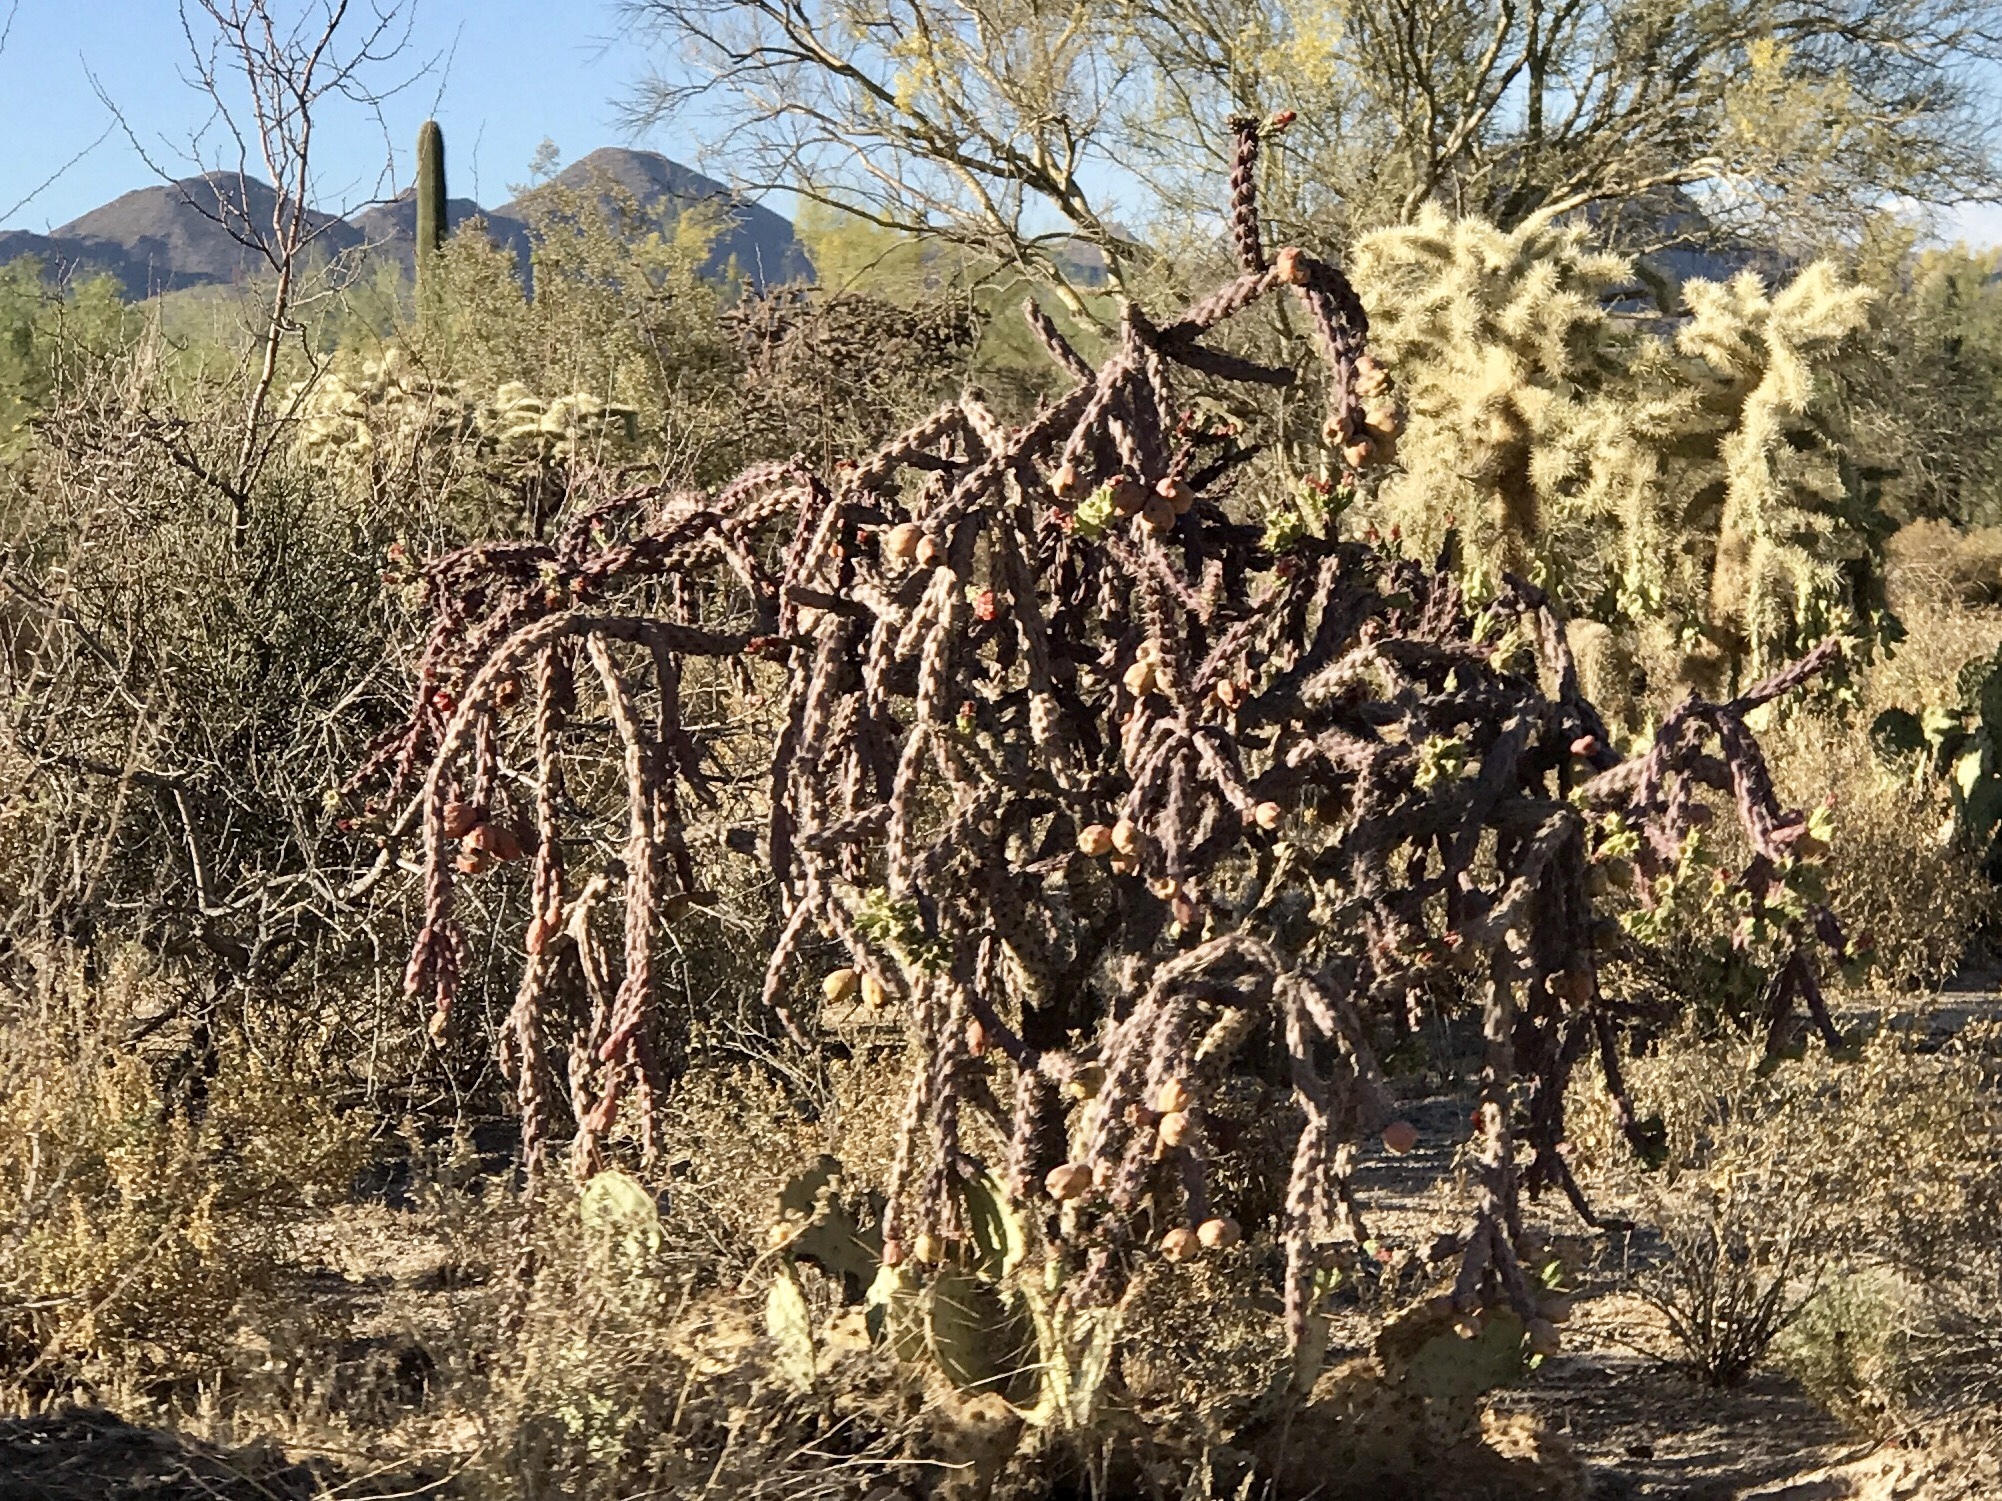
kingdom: Plantae
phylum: Tracheophyta
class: Magnoliopsida
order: Caryophyllales
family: Cactaceae
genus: Cylindropuntia
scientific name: Cylindropuntia thurberi
